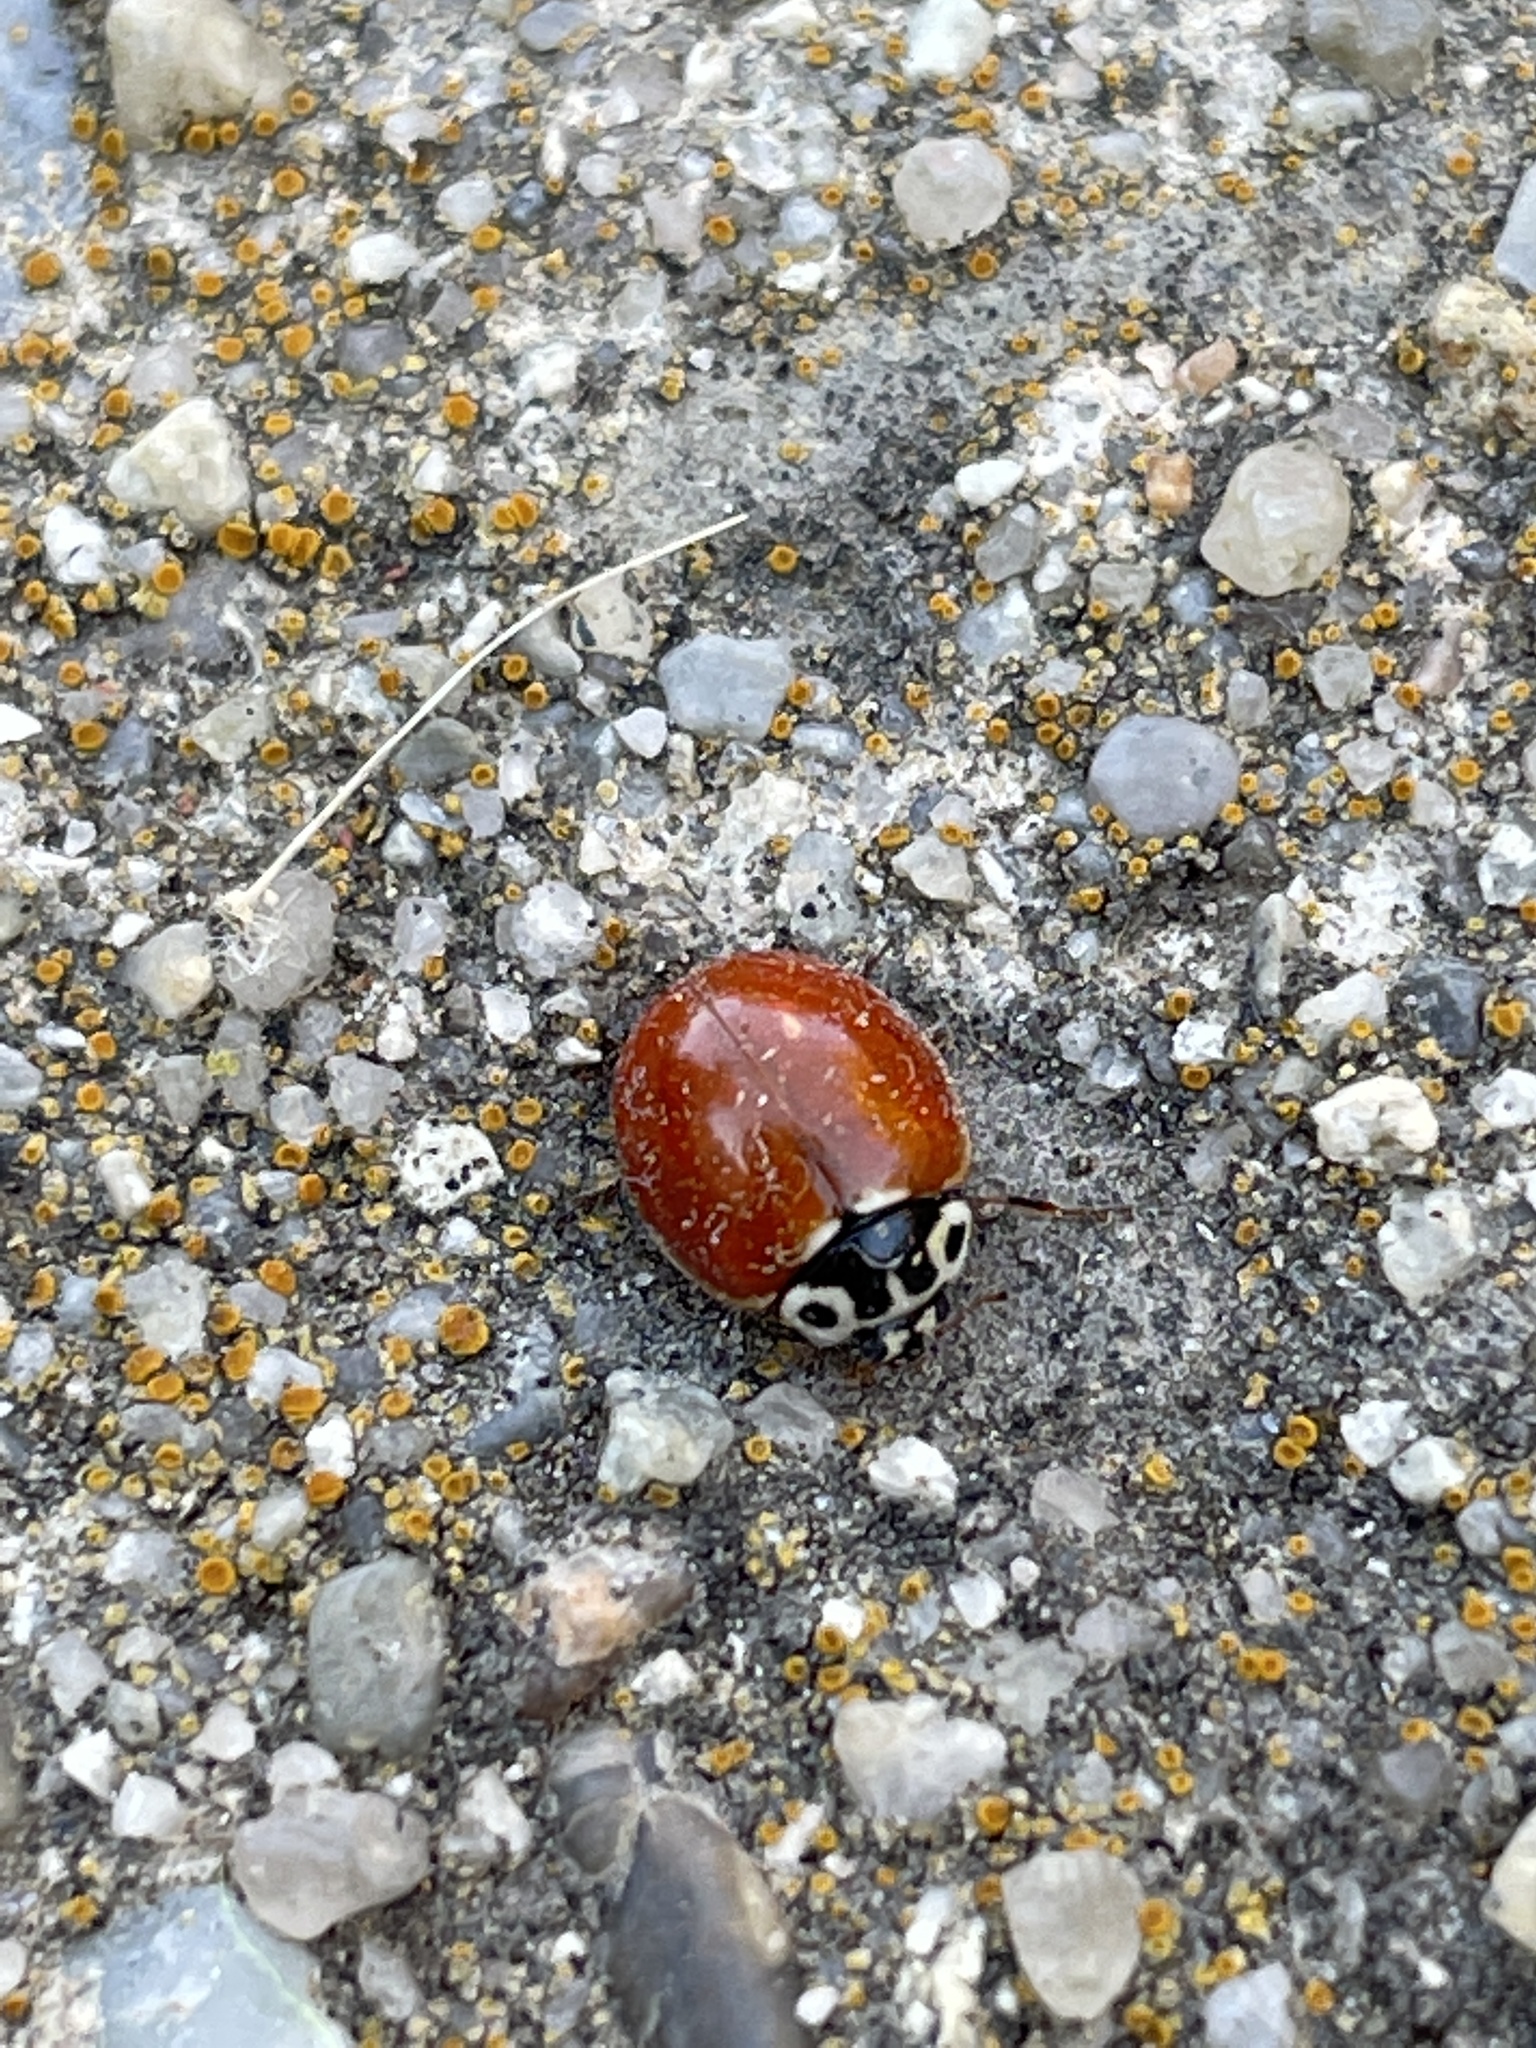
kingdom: Animalia
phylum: Arthropoda
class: Insecta
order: Coleoptera
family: Coccinellidae
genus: Cycloneda
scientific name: Cycloneda polita
